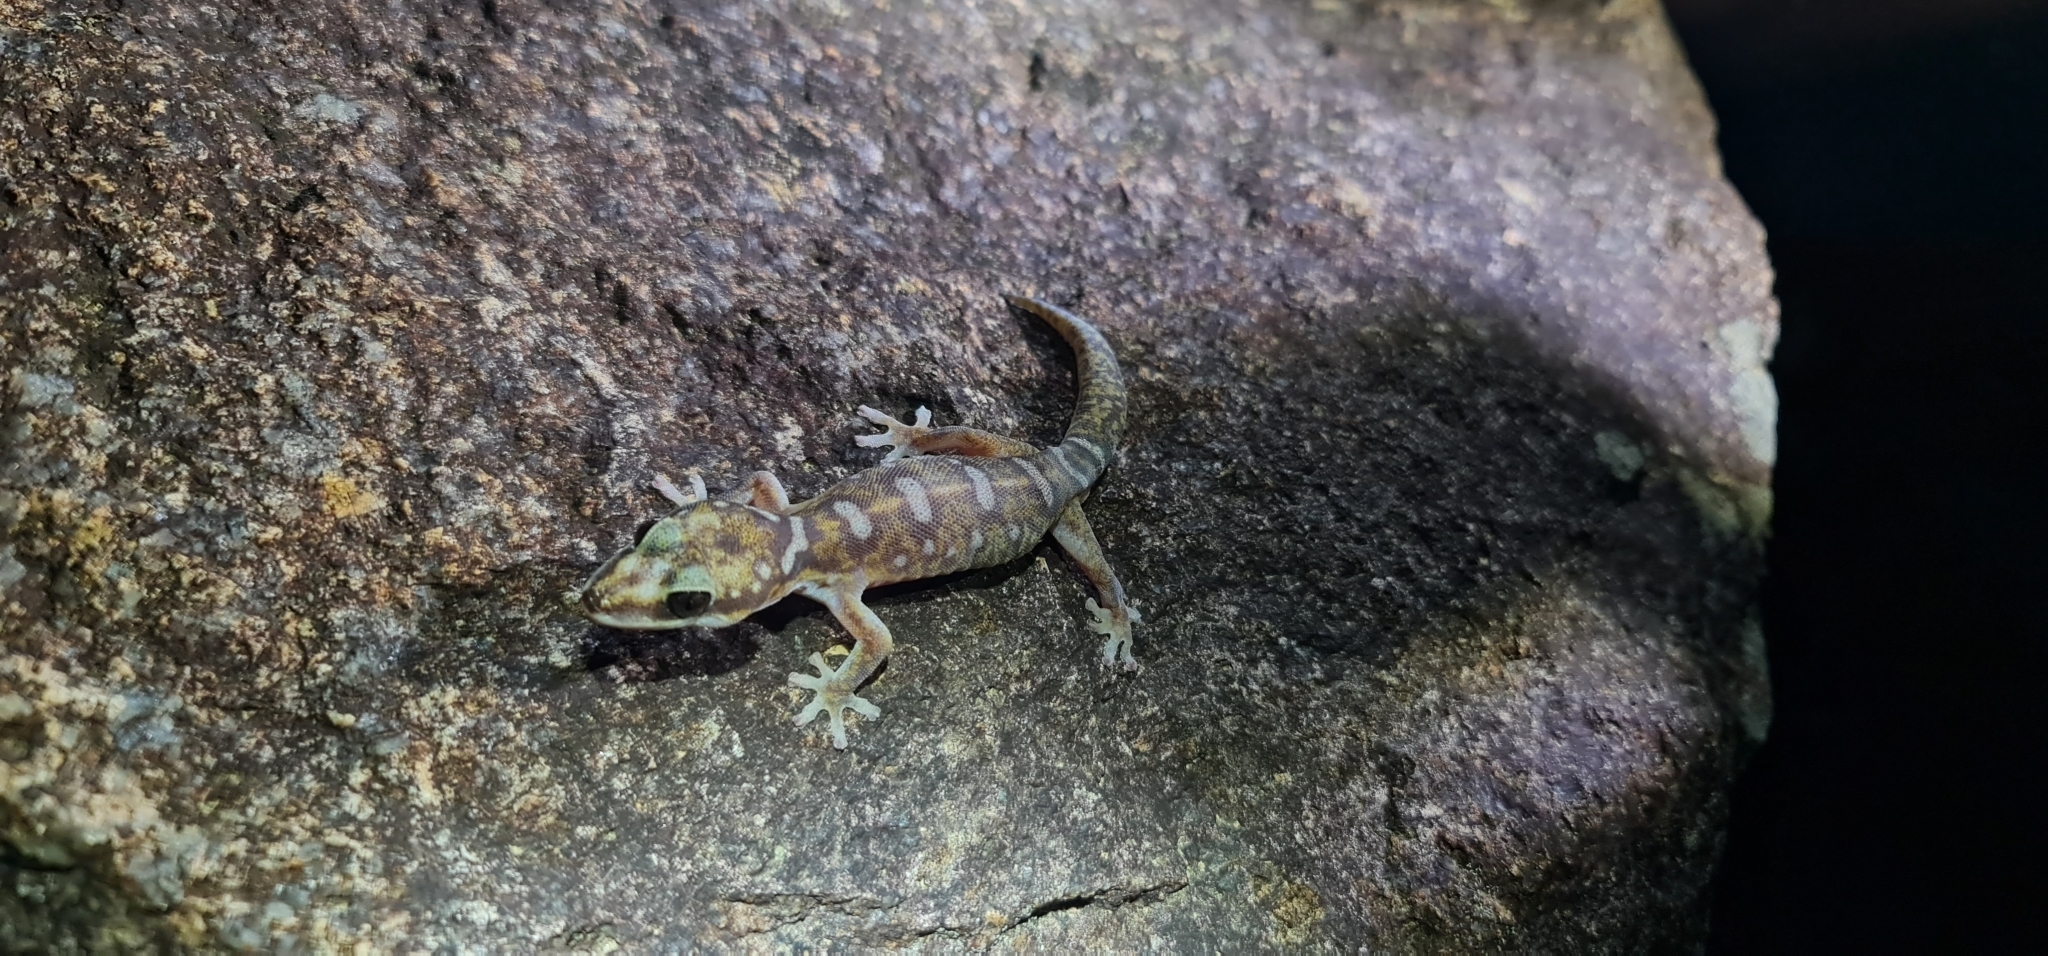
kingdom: Animalia
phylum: Chordata
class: Squamata
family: Diplodactylidae
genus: Oedura
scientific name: Oedura monilis
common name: Blotched gecko
